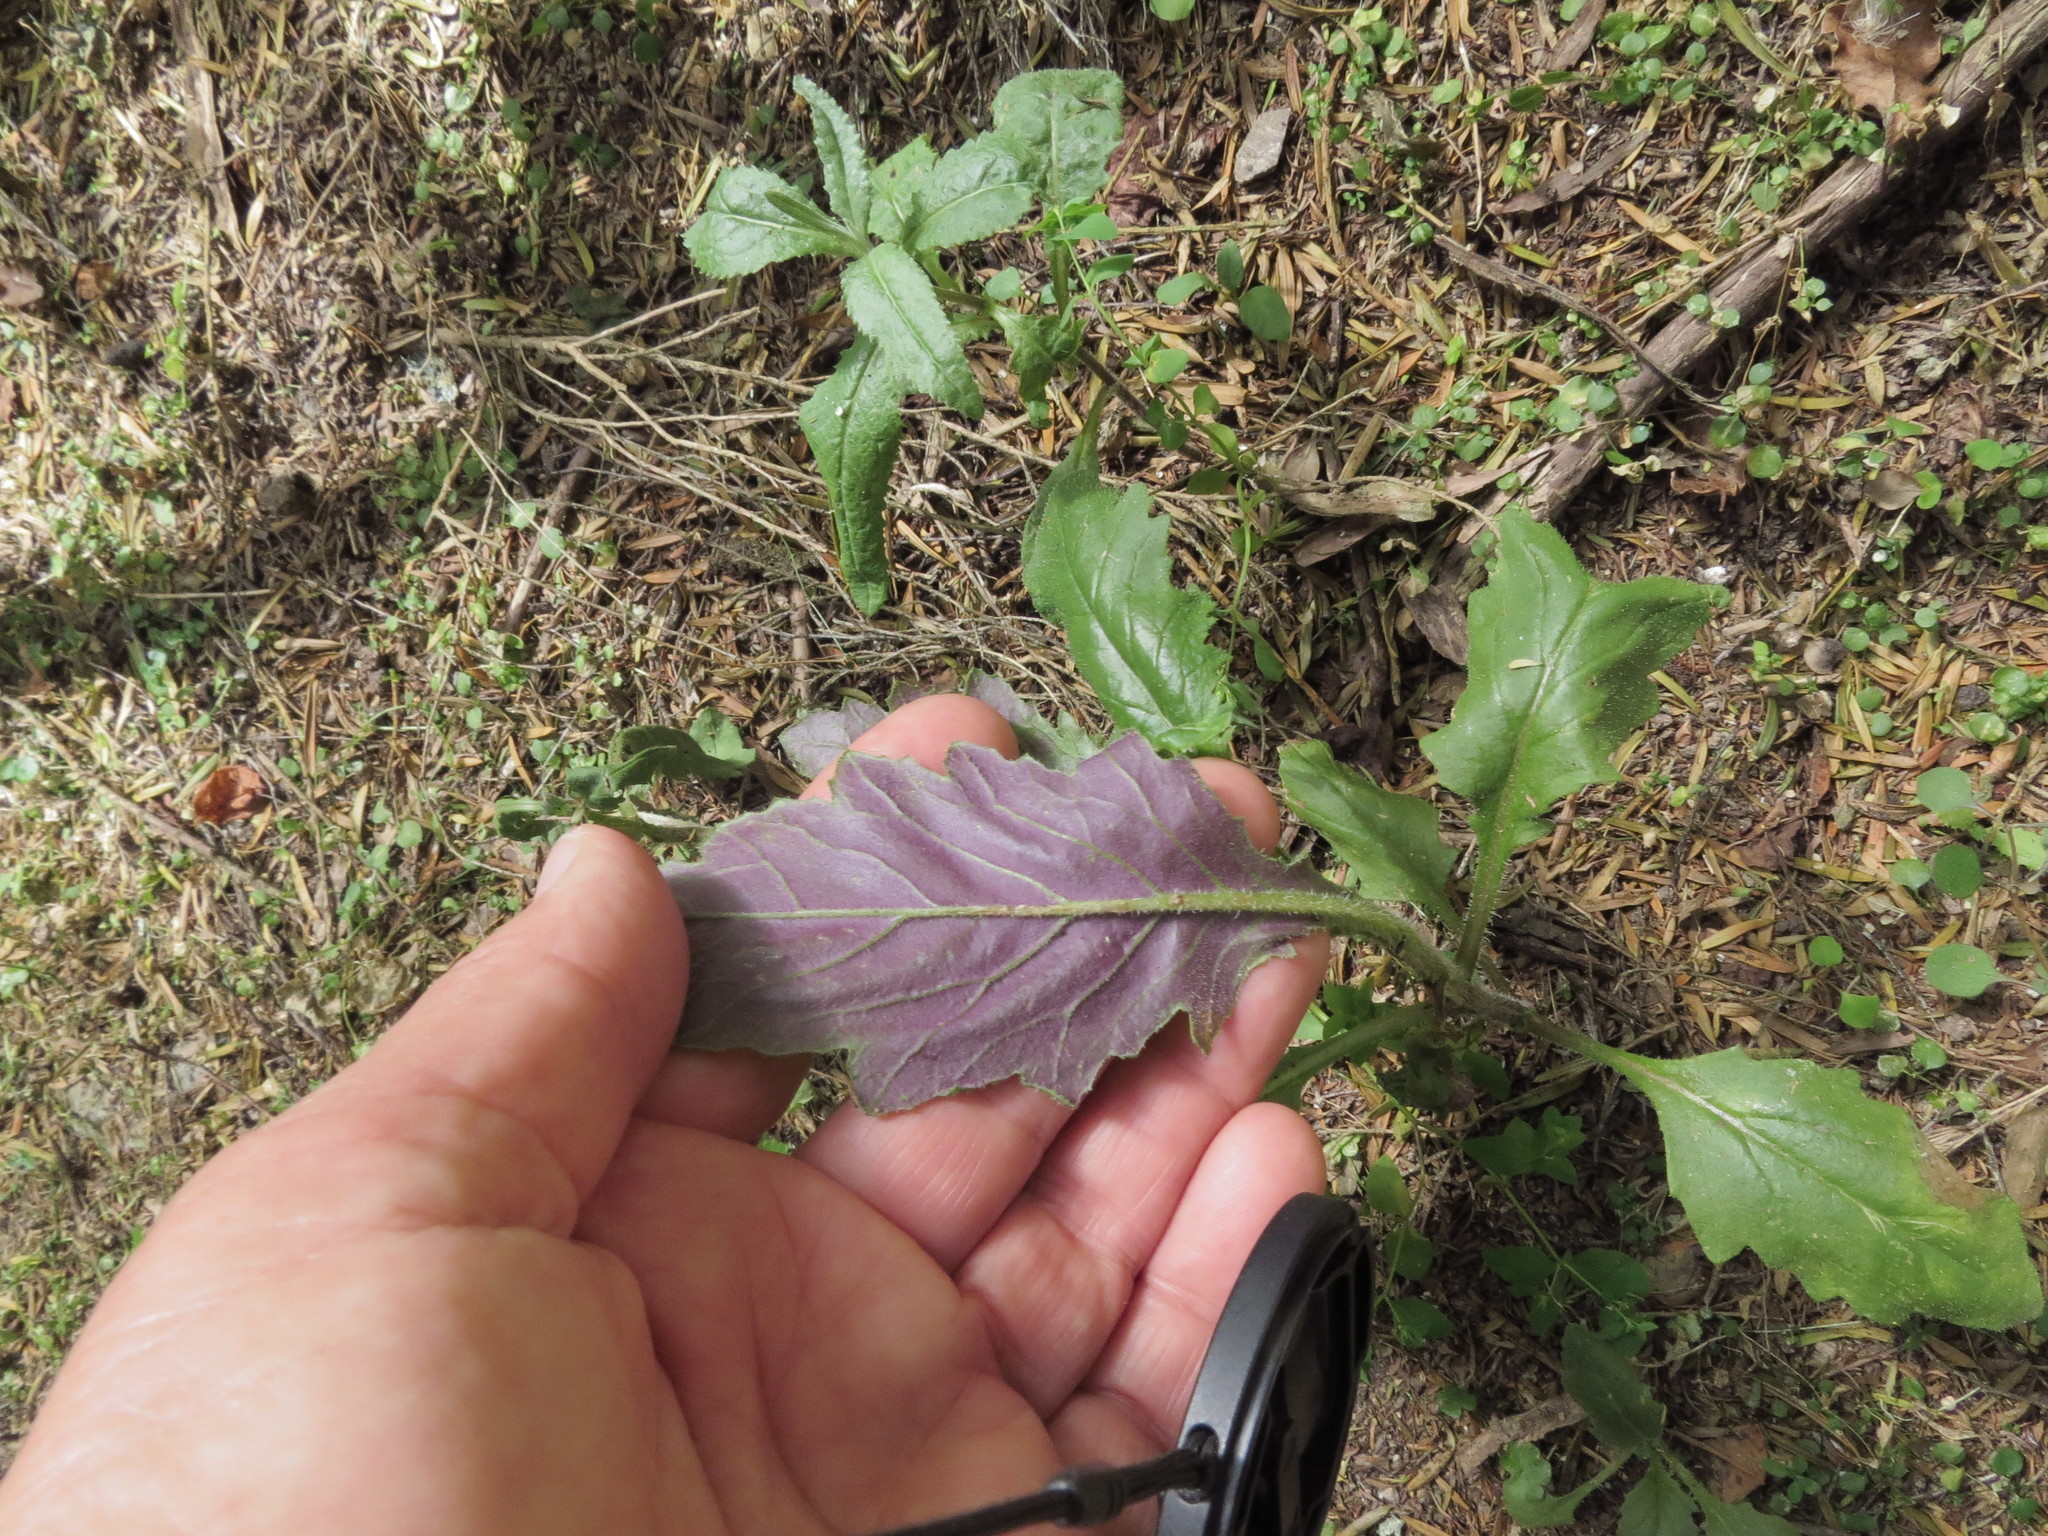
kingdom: Plantae
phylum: Tracheophyta
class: Magnoliopsida
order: Asterales
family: Asteraceae
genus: Senecio
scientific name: Senecio glomeratus
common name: Cutleaf burnweed
